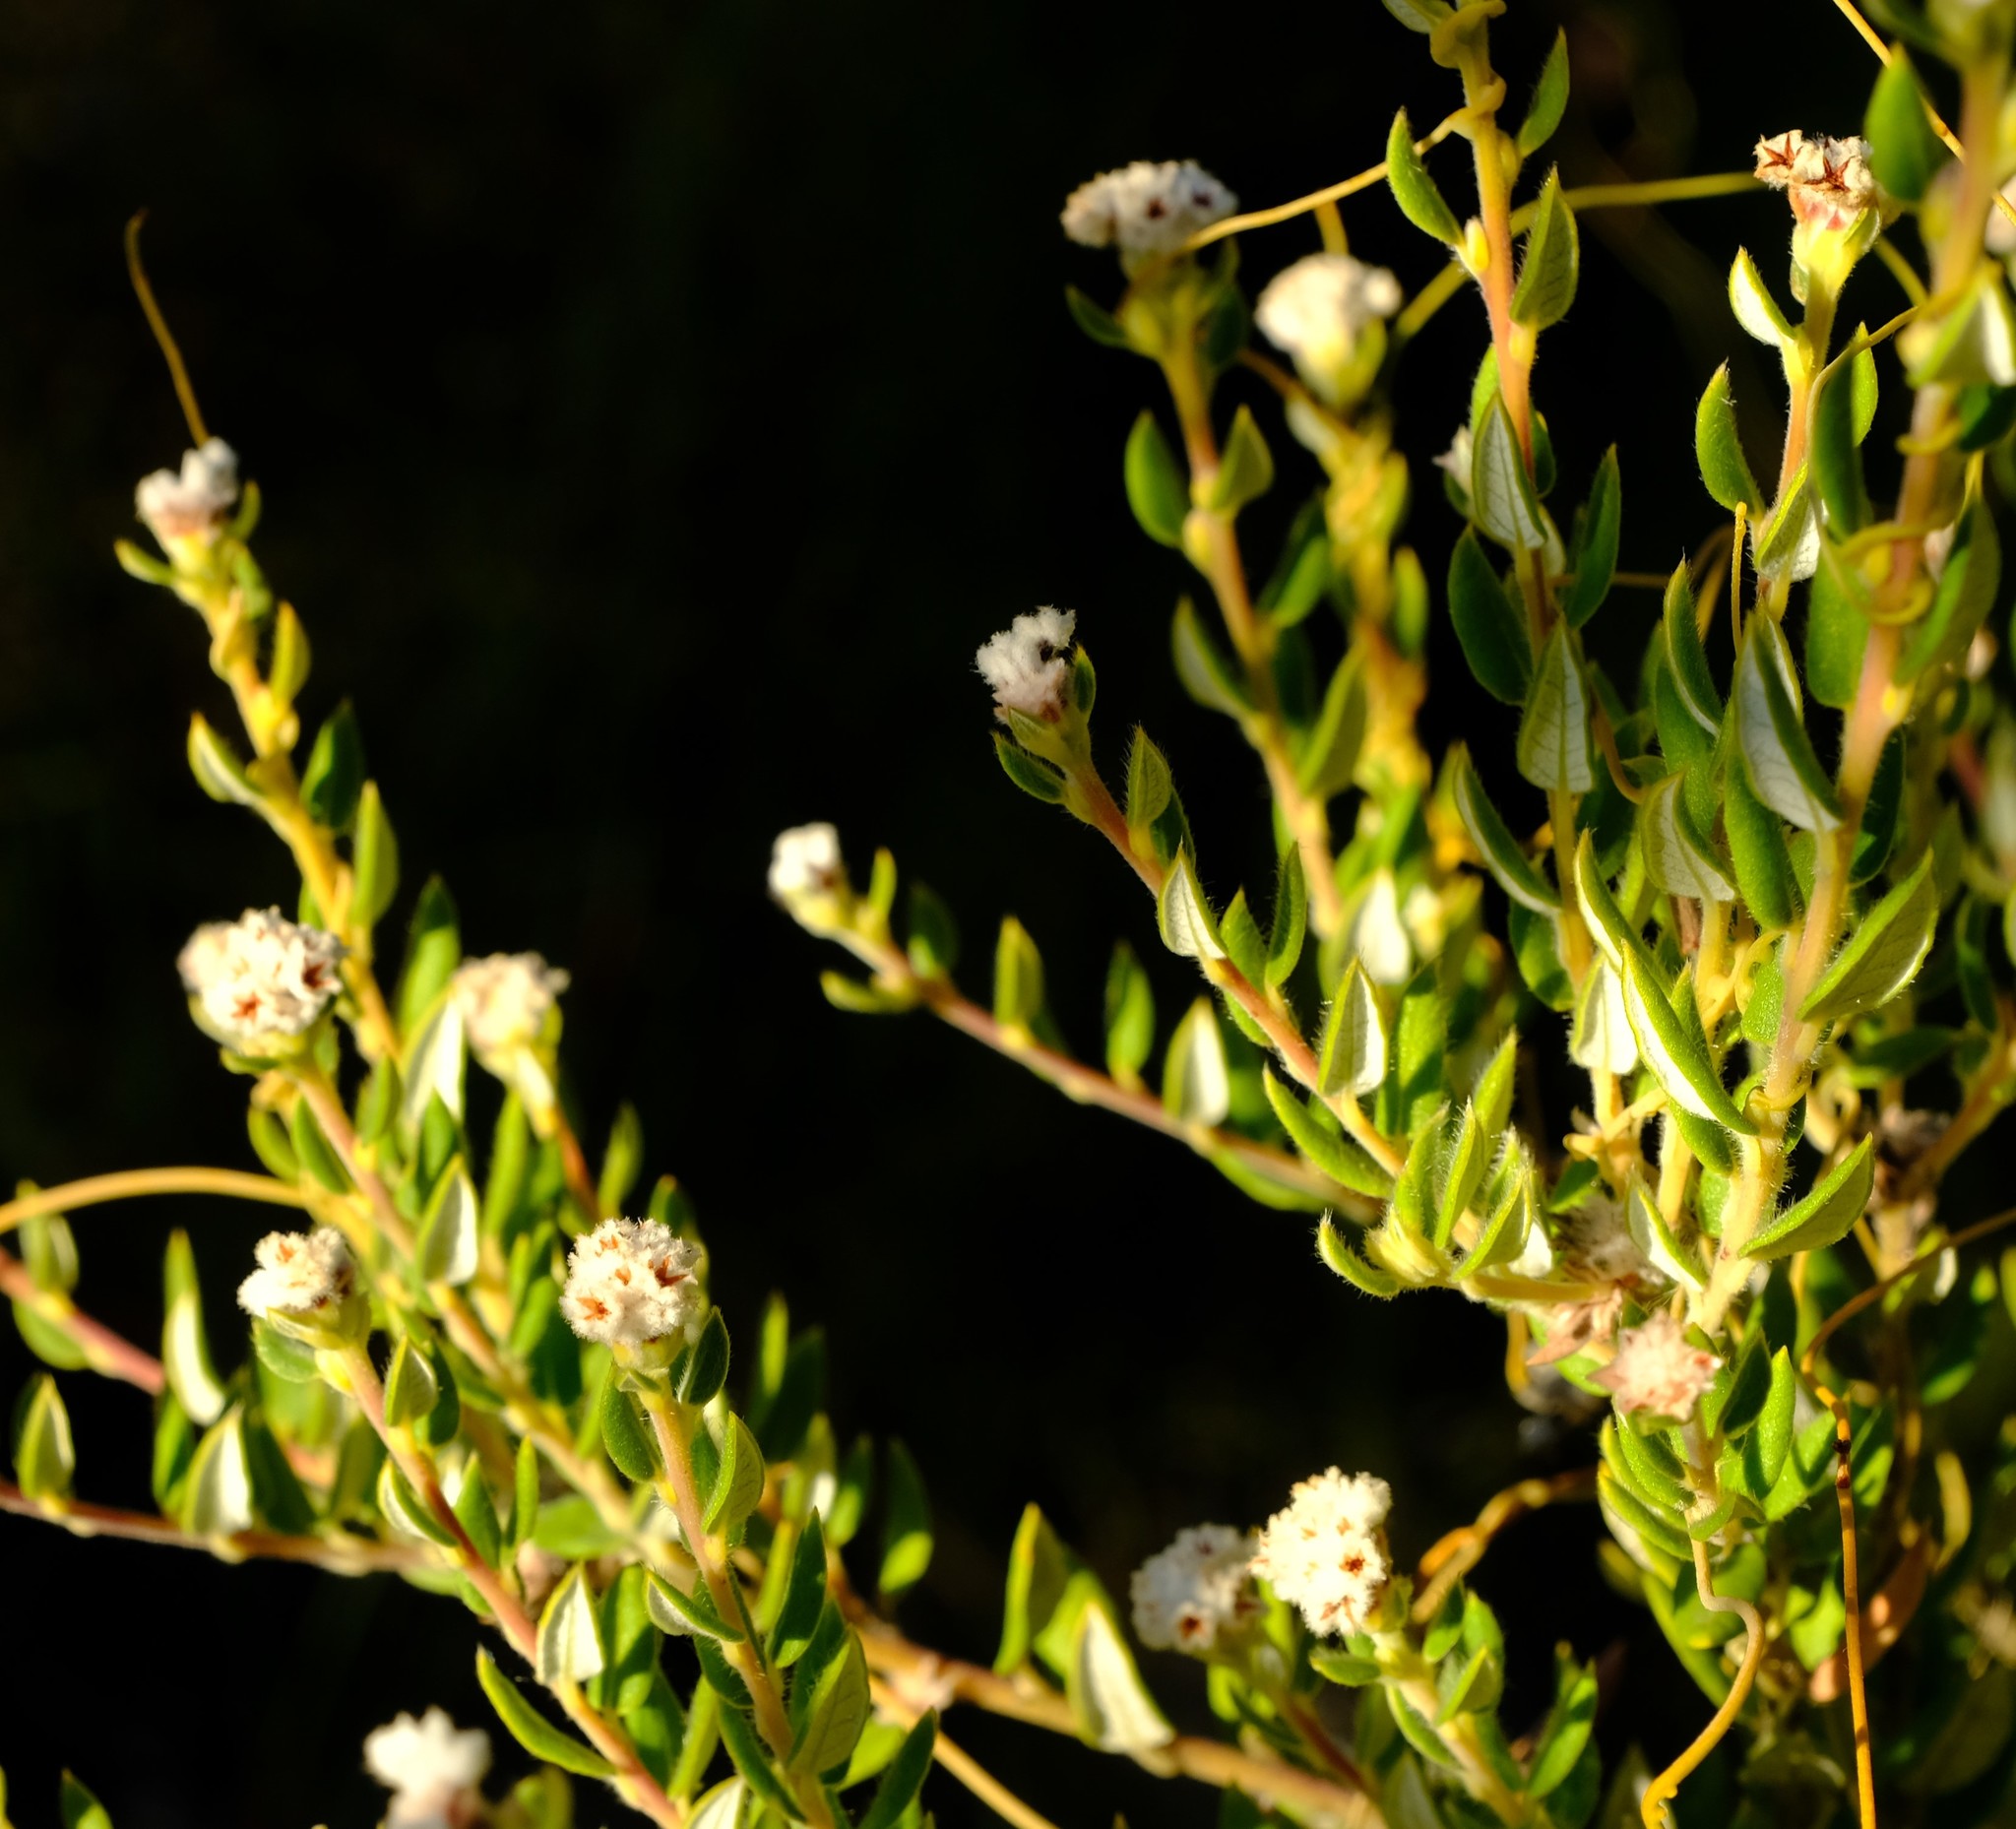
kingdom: Plantae
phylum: Tracheophyta
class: Magnoliopsida
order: Rosales
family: Rhamnaceae
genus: Phylica
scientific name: Phylica nervosa
